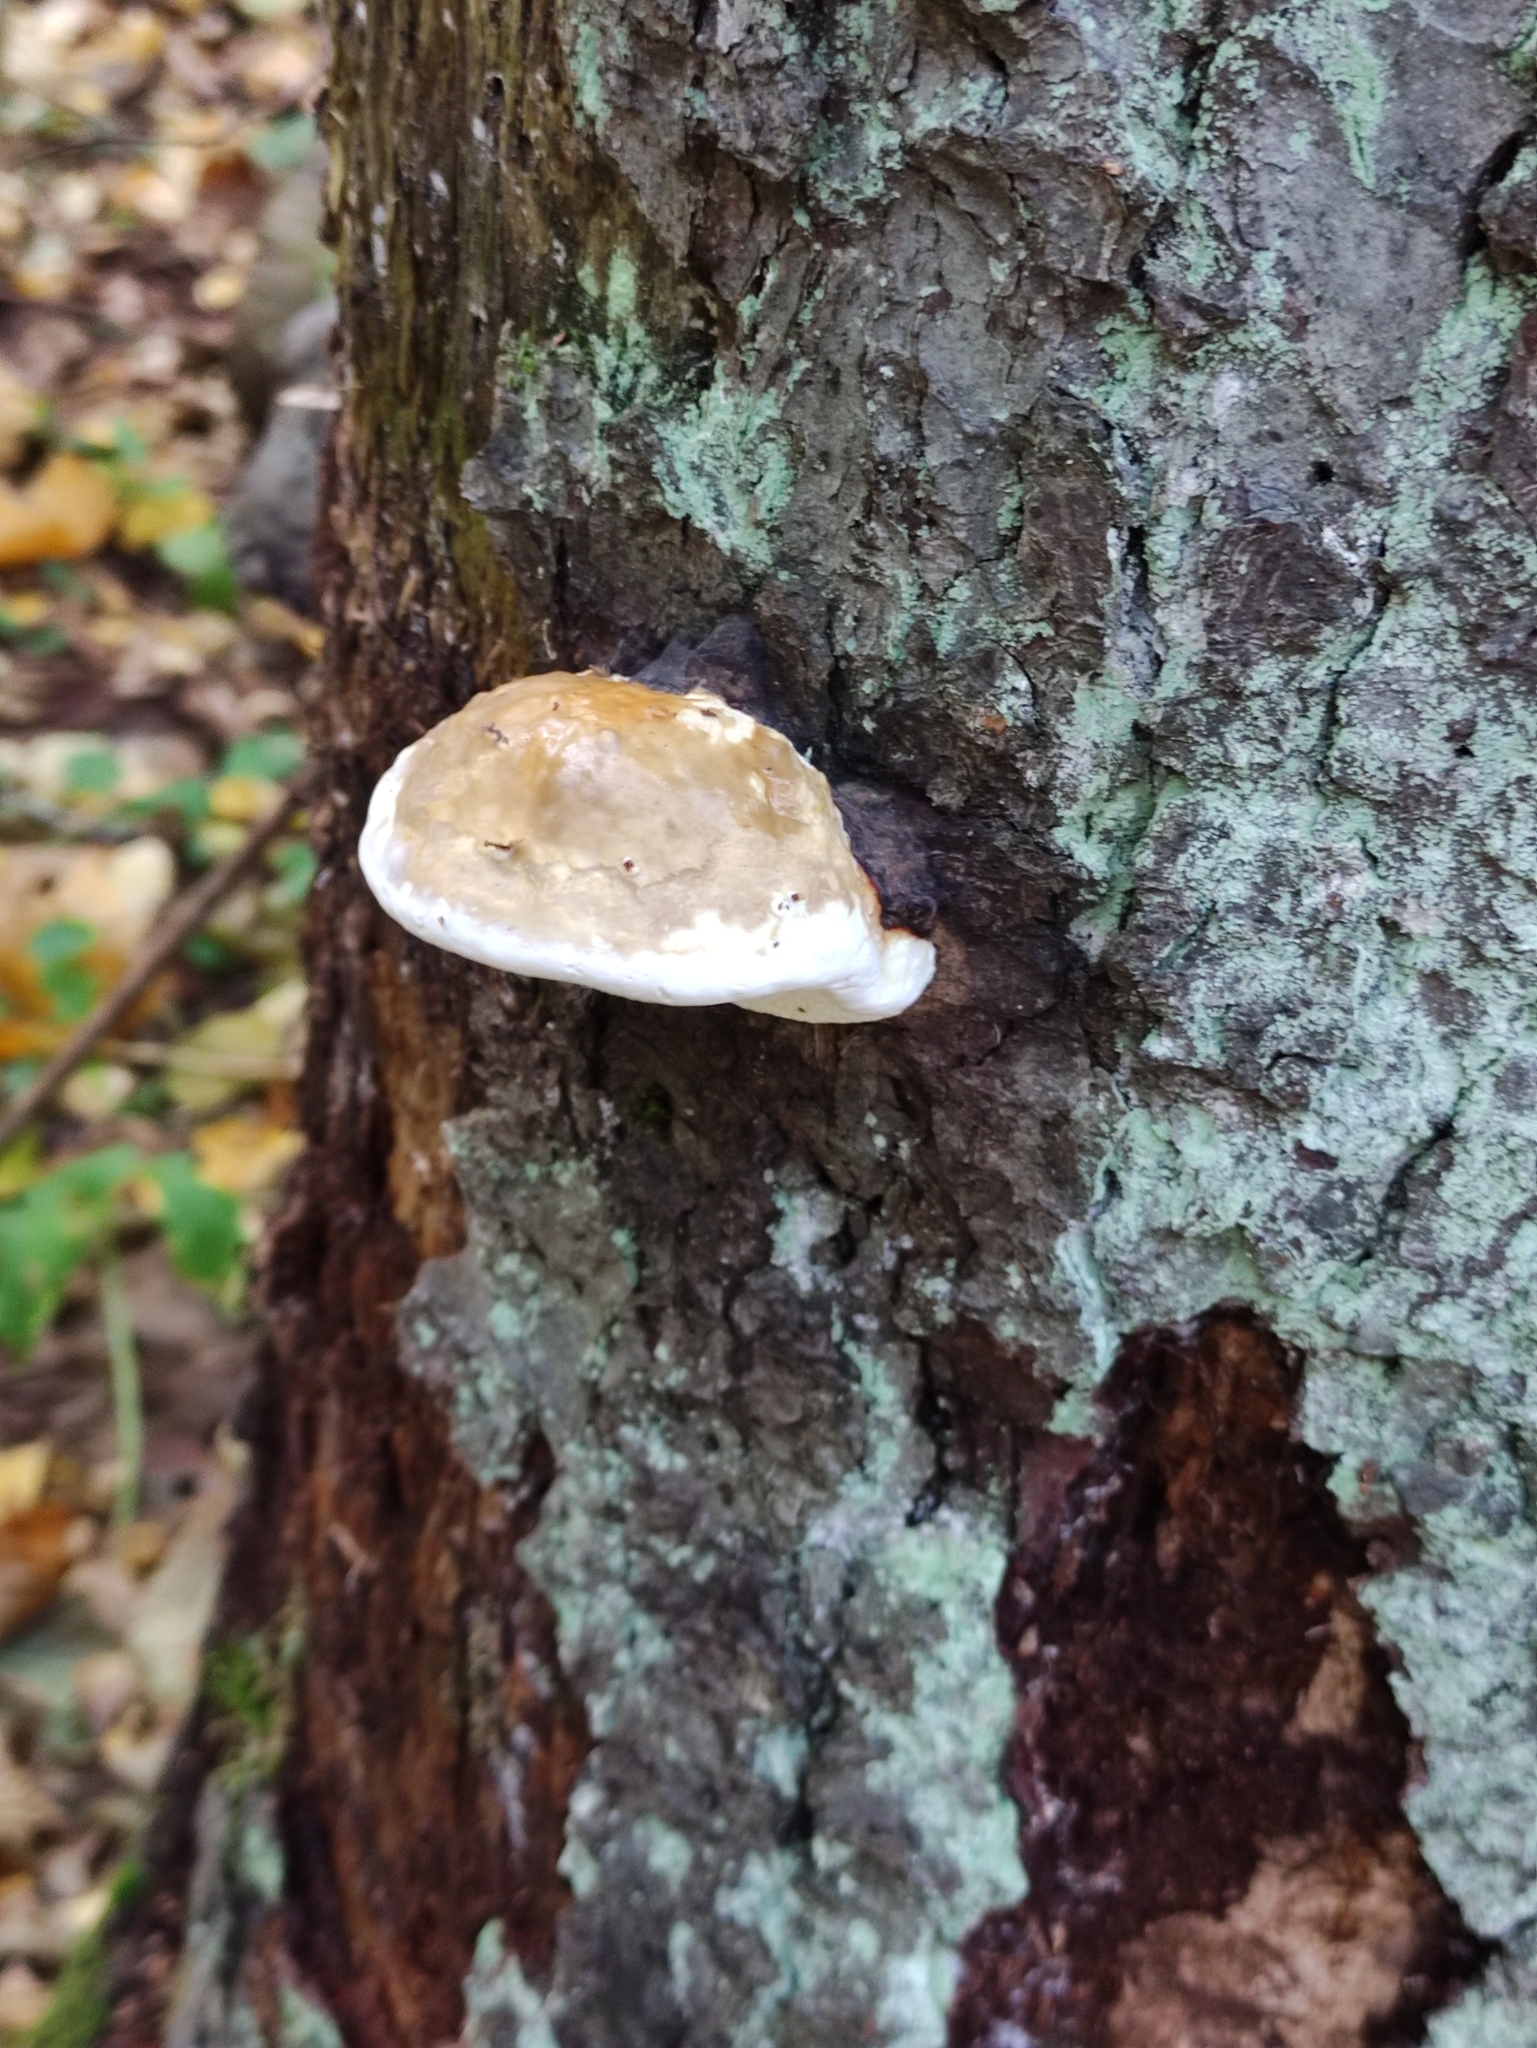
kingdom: Fungi
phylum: Basidiomycota
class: Agaricomycetes
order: Polyporales
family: Fomitopsidaceae
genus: Fomitopsis
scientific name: Fomitopsis pinicola
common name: Red-belted bracket
